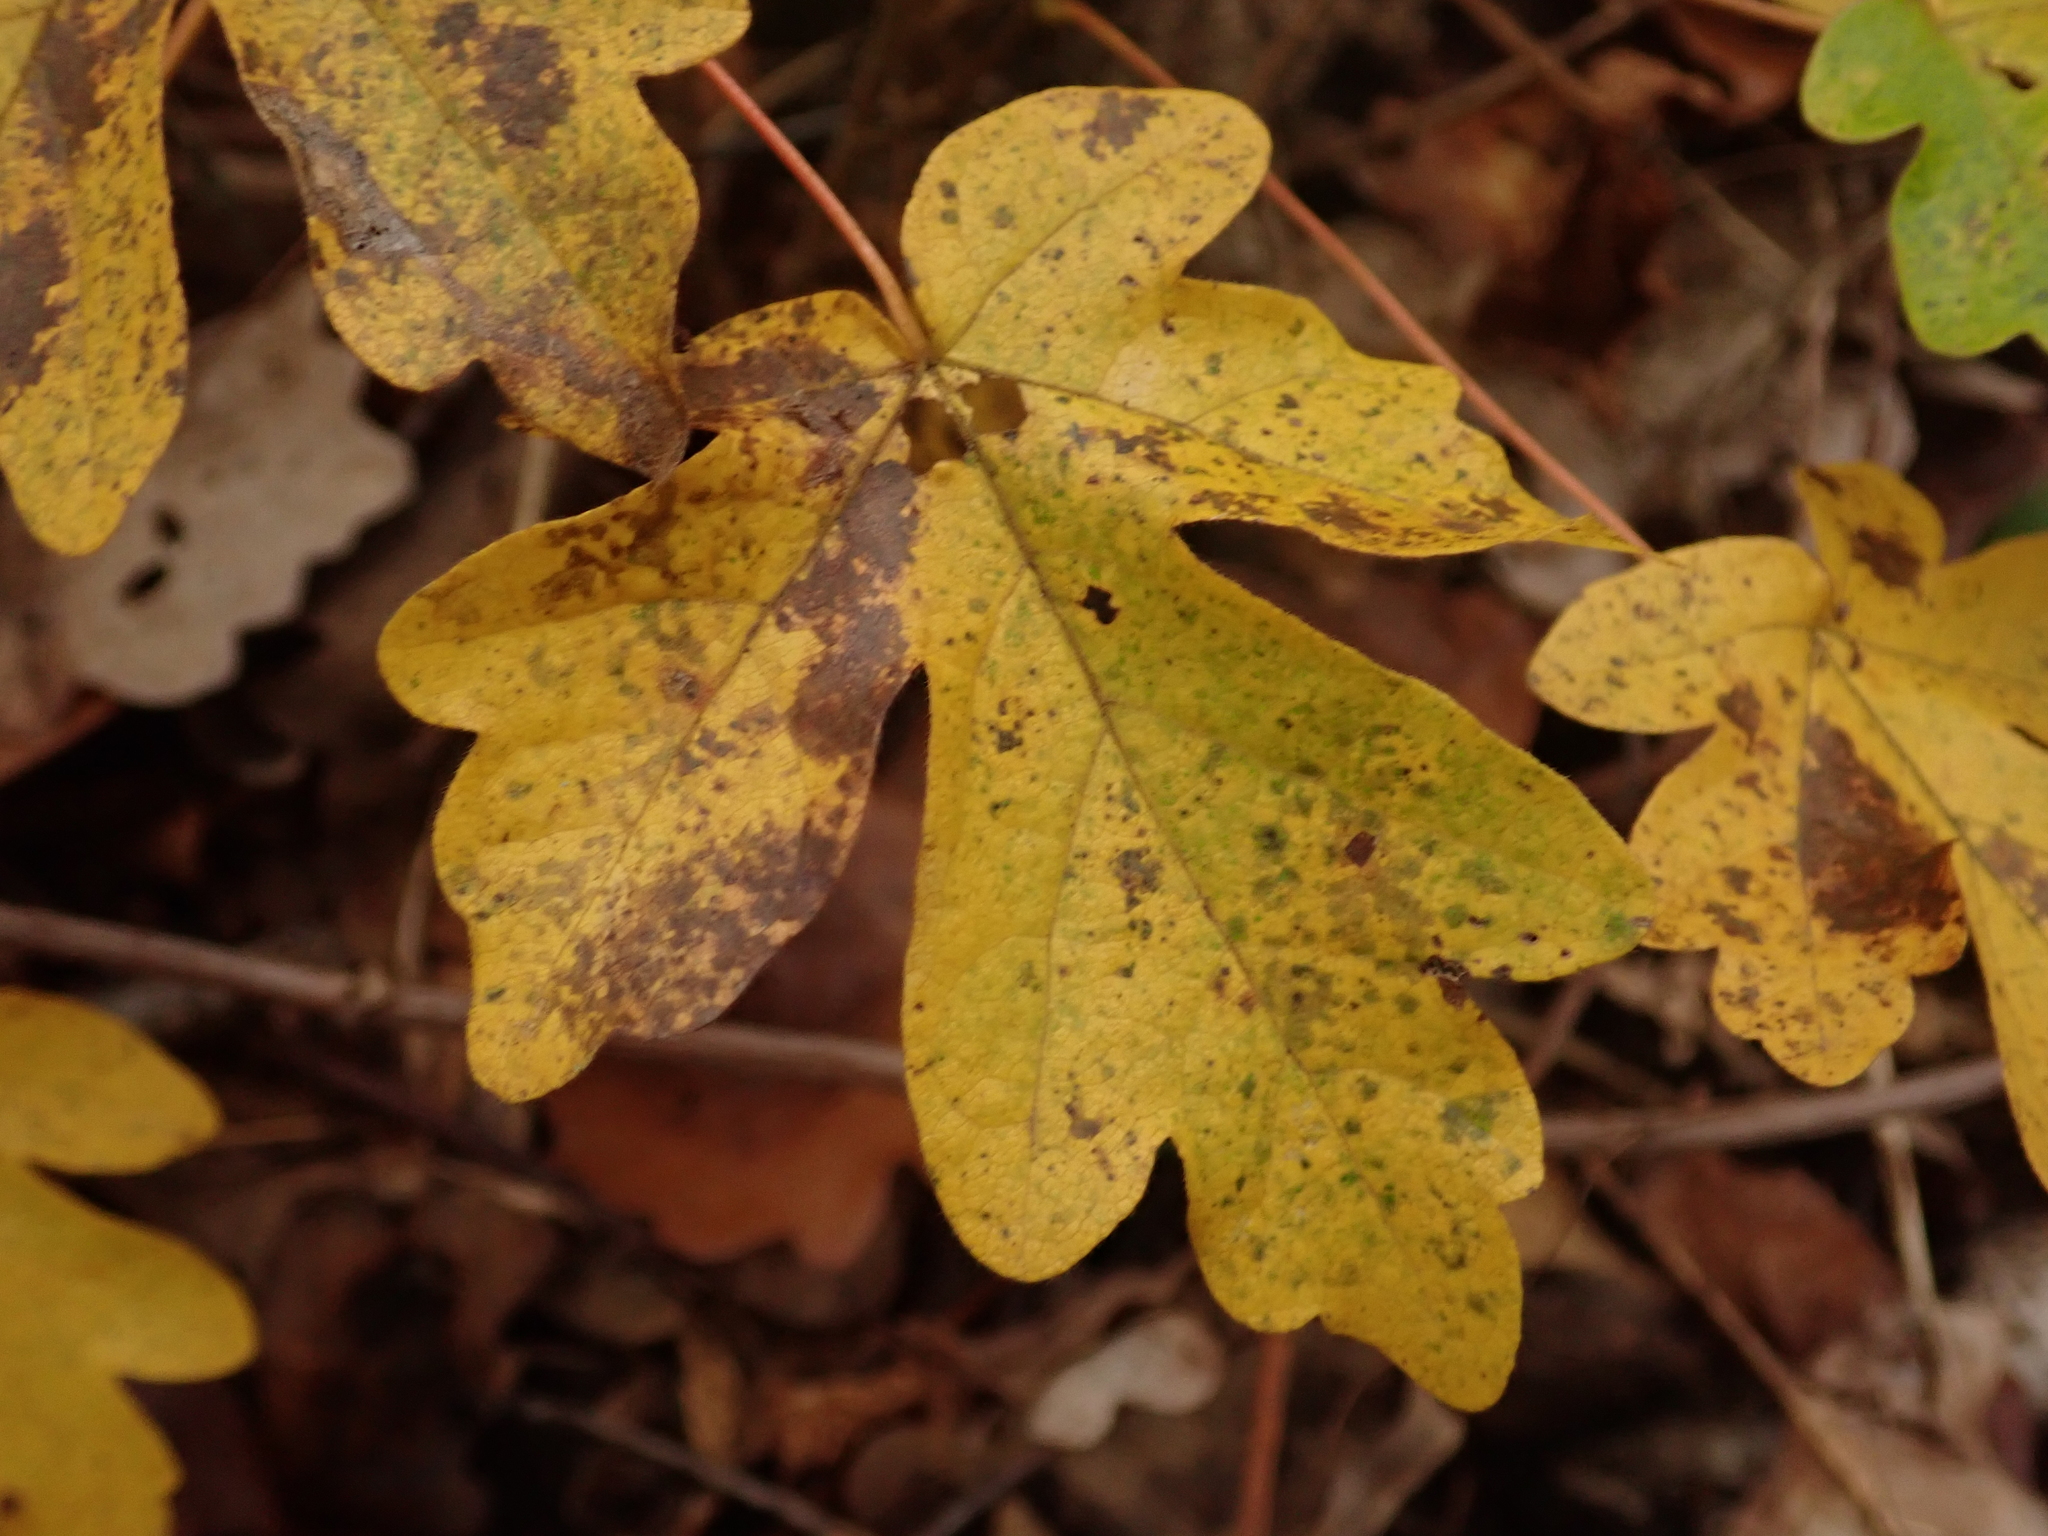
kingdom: Plantae
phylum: Tracheophyta
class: Magnoliopsida
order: Sapindales
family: Sapindaceae
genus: Acer
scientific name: Acer campestre
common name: Field maple
